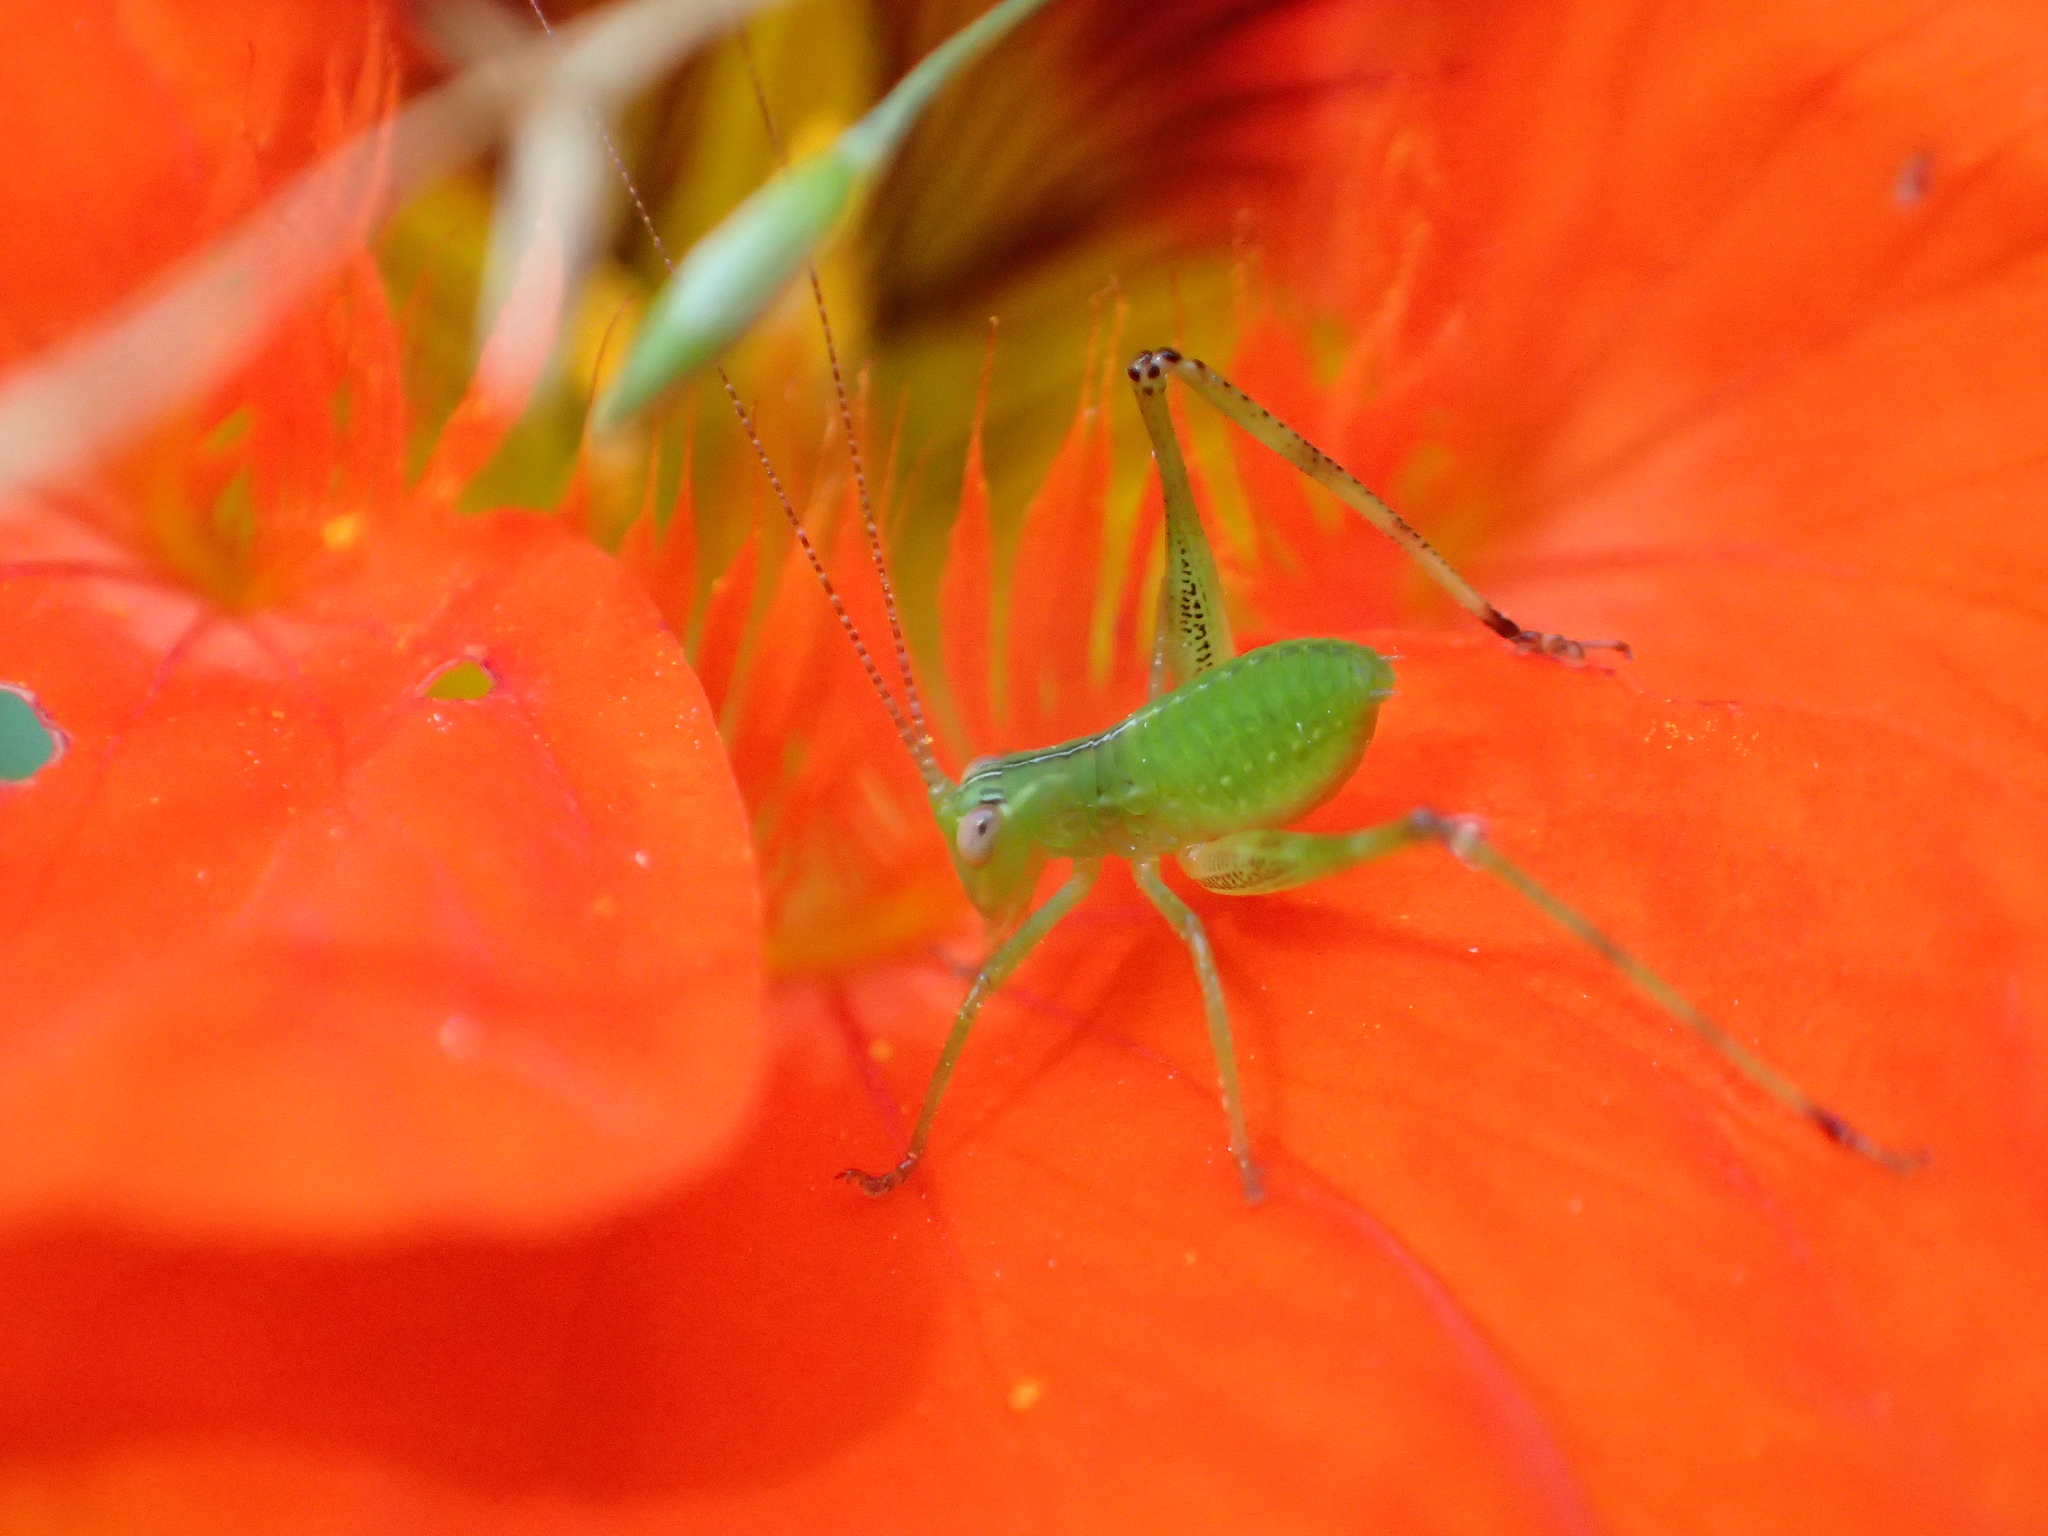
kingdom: Animalia
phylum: Arthropoda
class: Insecta
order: Orthoptera
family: Tettigoniidae
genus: Caedicia
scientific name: Caedicia simplex
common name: Common garden katydid
